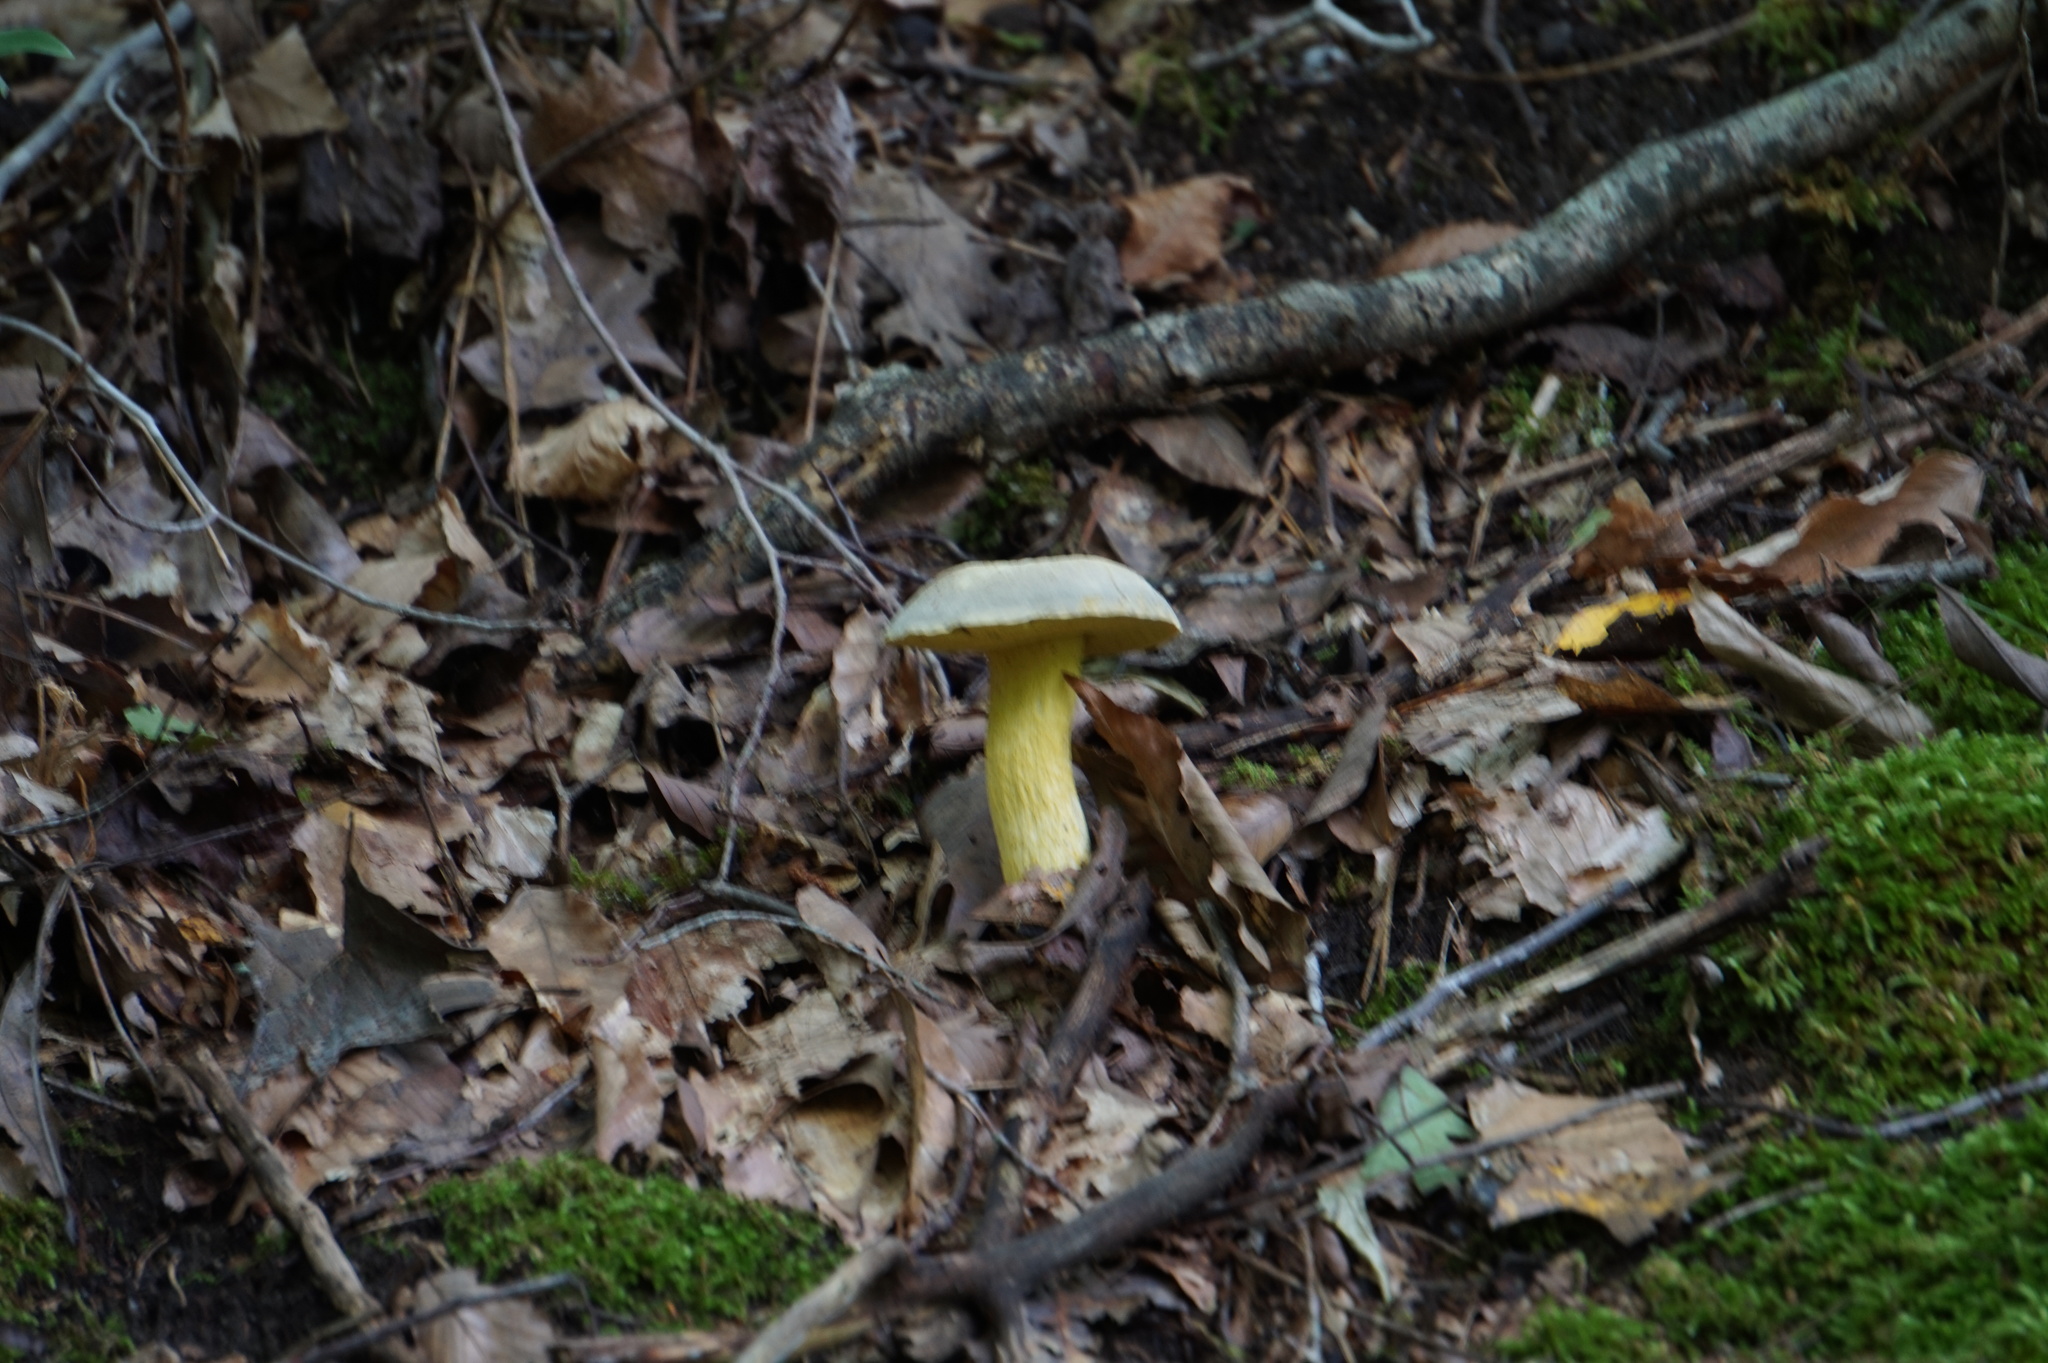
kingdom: Fungi
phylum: Basidiomycota
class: Agaricomycetes
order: Boletales
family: Boletaceae
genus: Retiboletus
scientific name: Retiboletus ornatipes
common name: Ornate-stalked bolete
